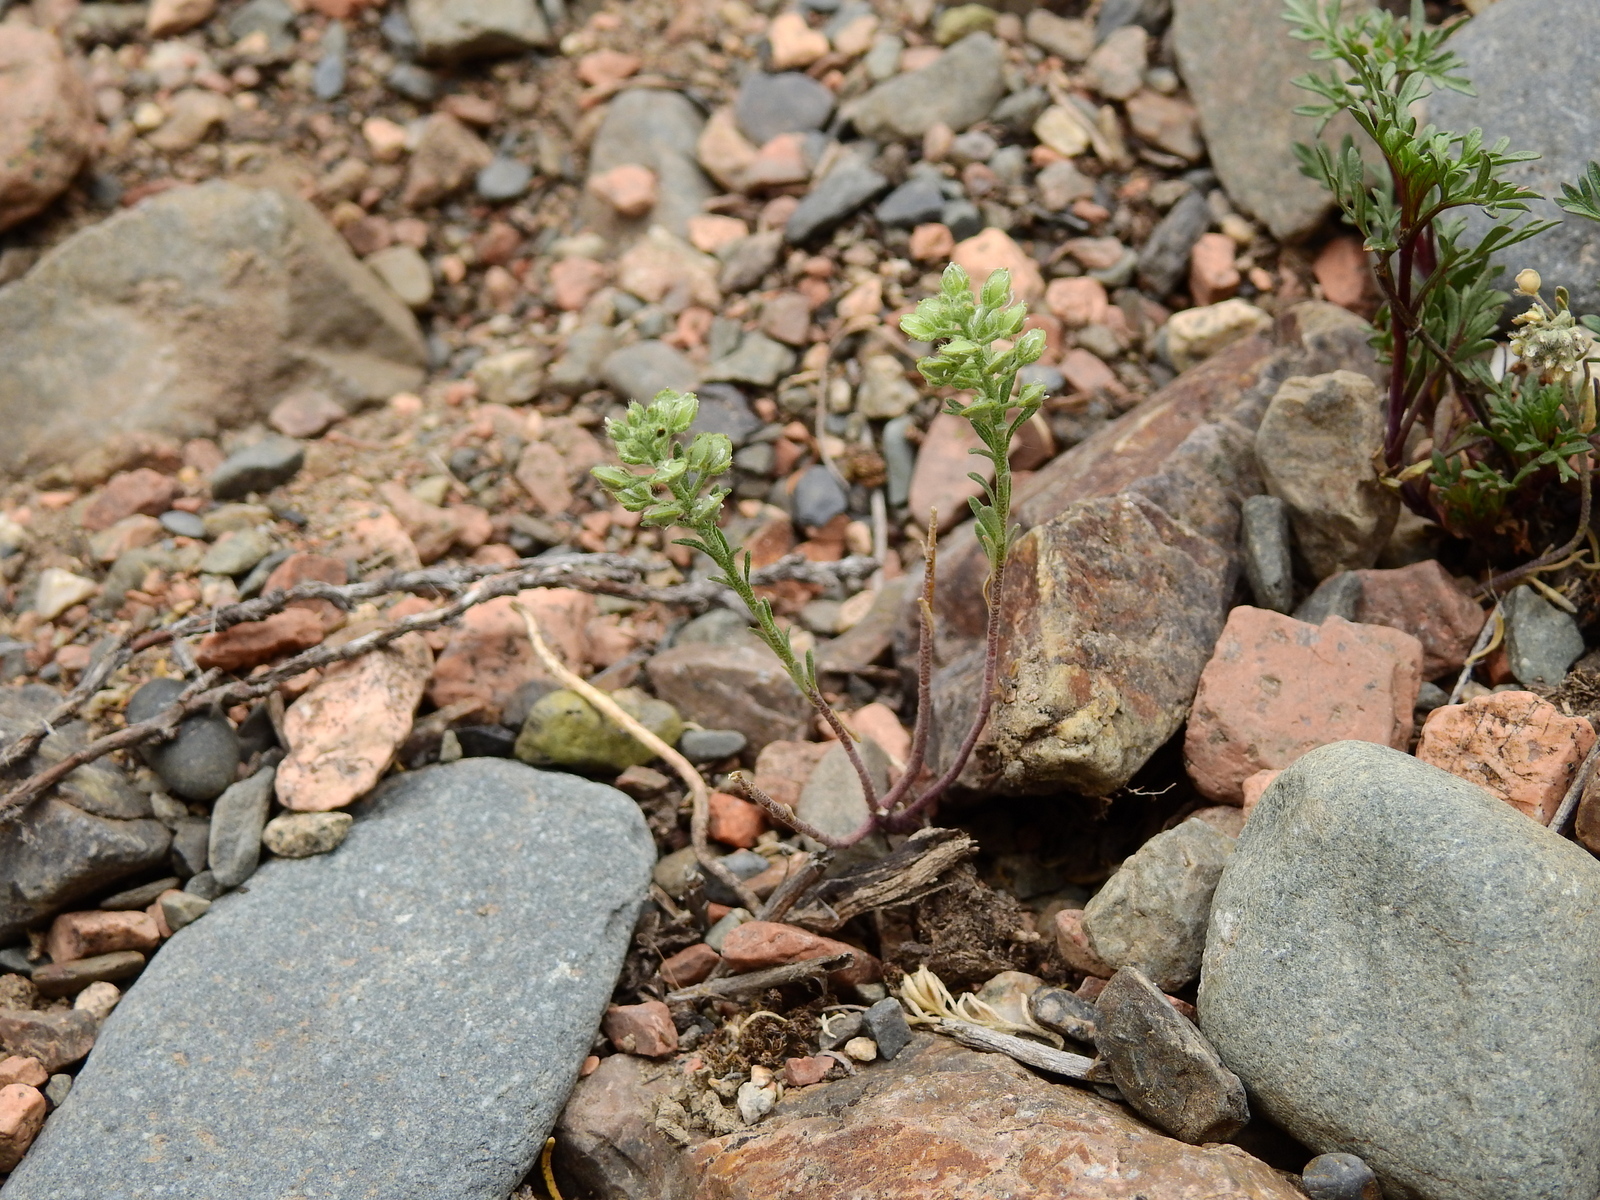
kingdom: Plantae
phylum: Tracheophyta
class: Magnoliopsida
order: Brassicales
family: Brassicaceae
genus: Alyssum
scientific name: Alyssum alyssoides
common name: Small alison
